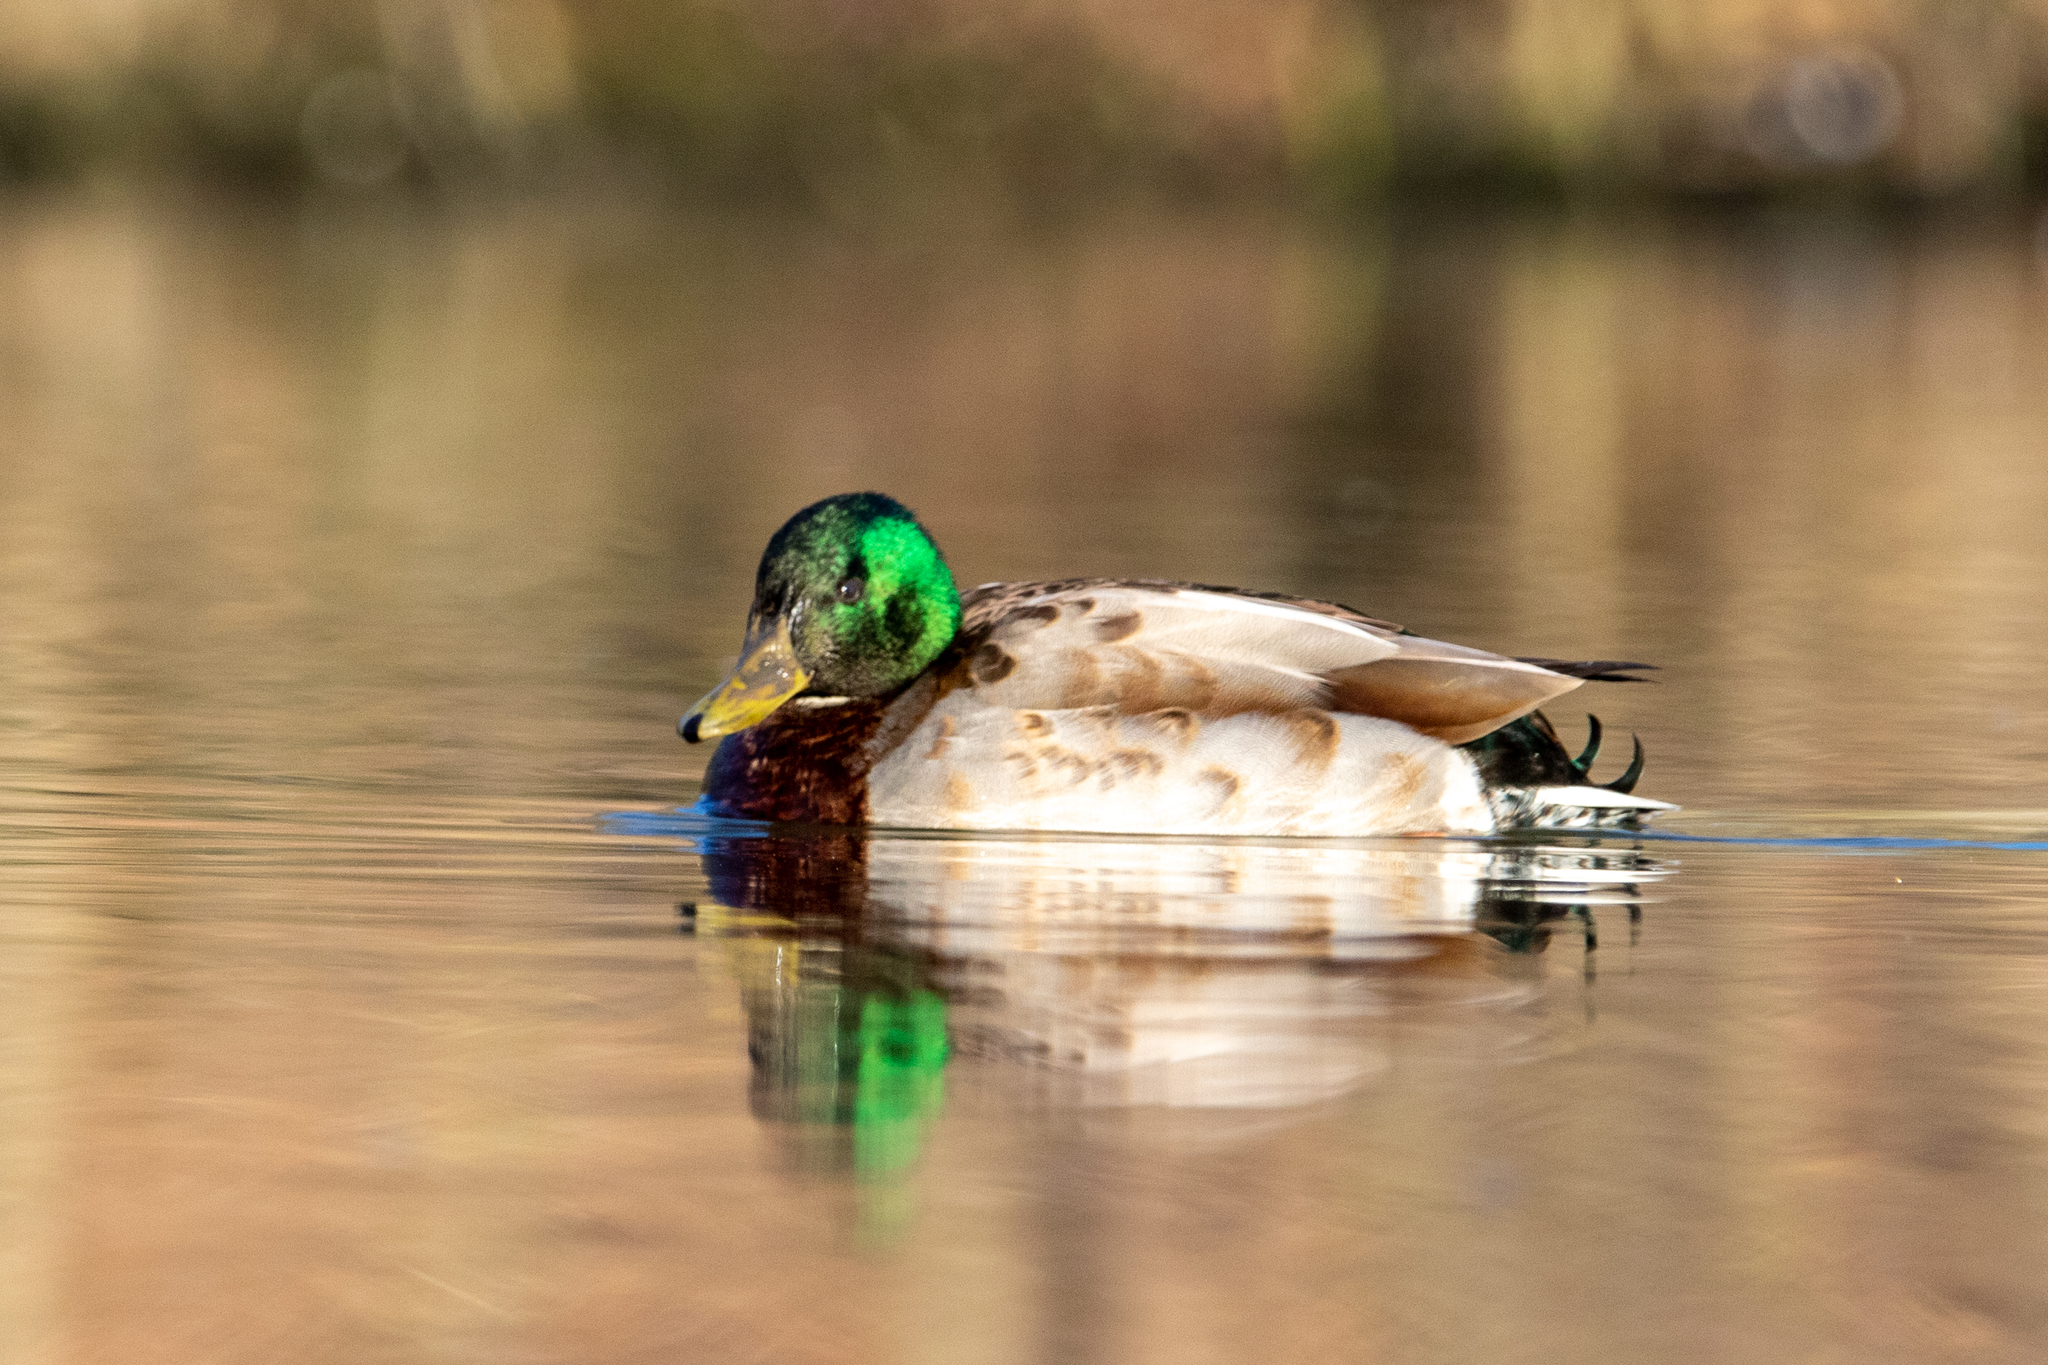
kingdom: Animalia
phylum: Chordata
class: Aves
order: Anseriformes
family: Anatidae
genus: Anas
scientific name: Anas platyrhynchos
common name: Mallard
